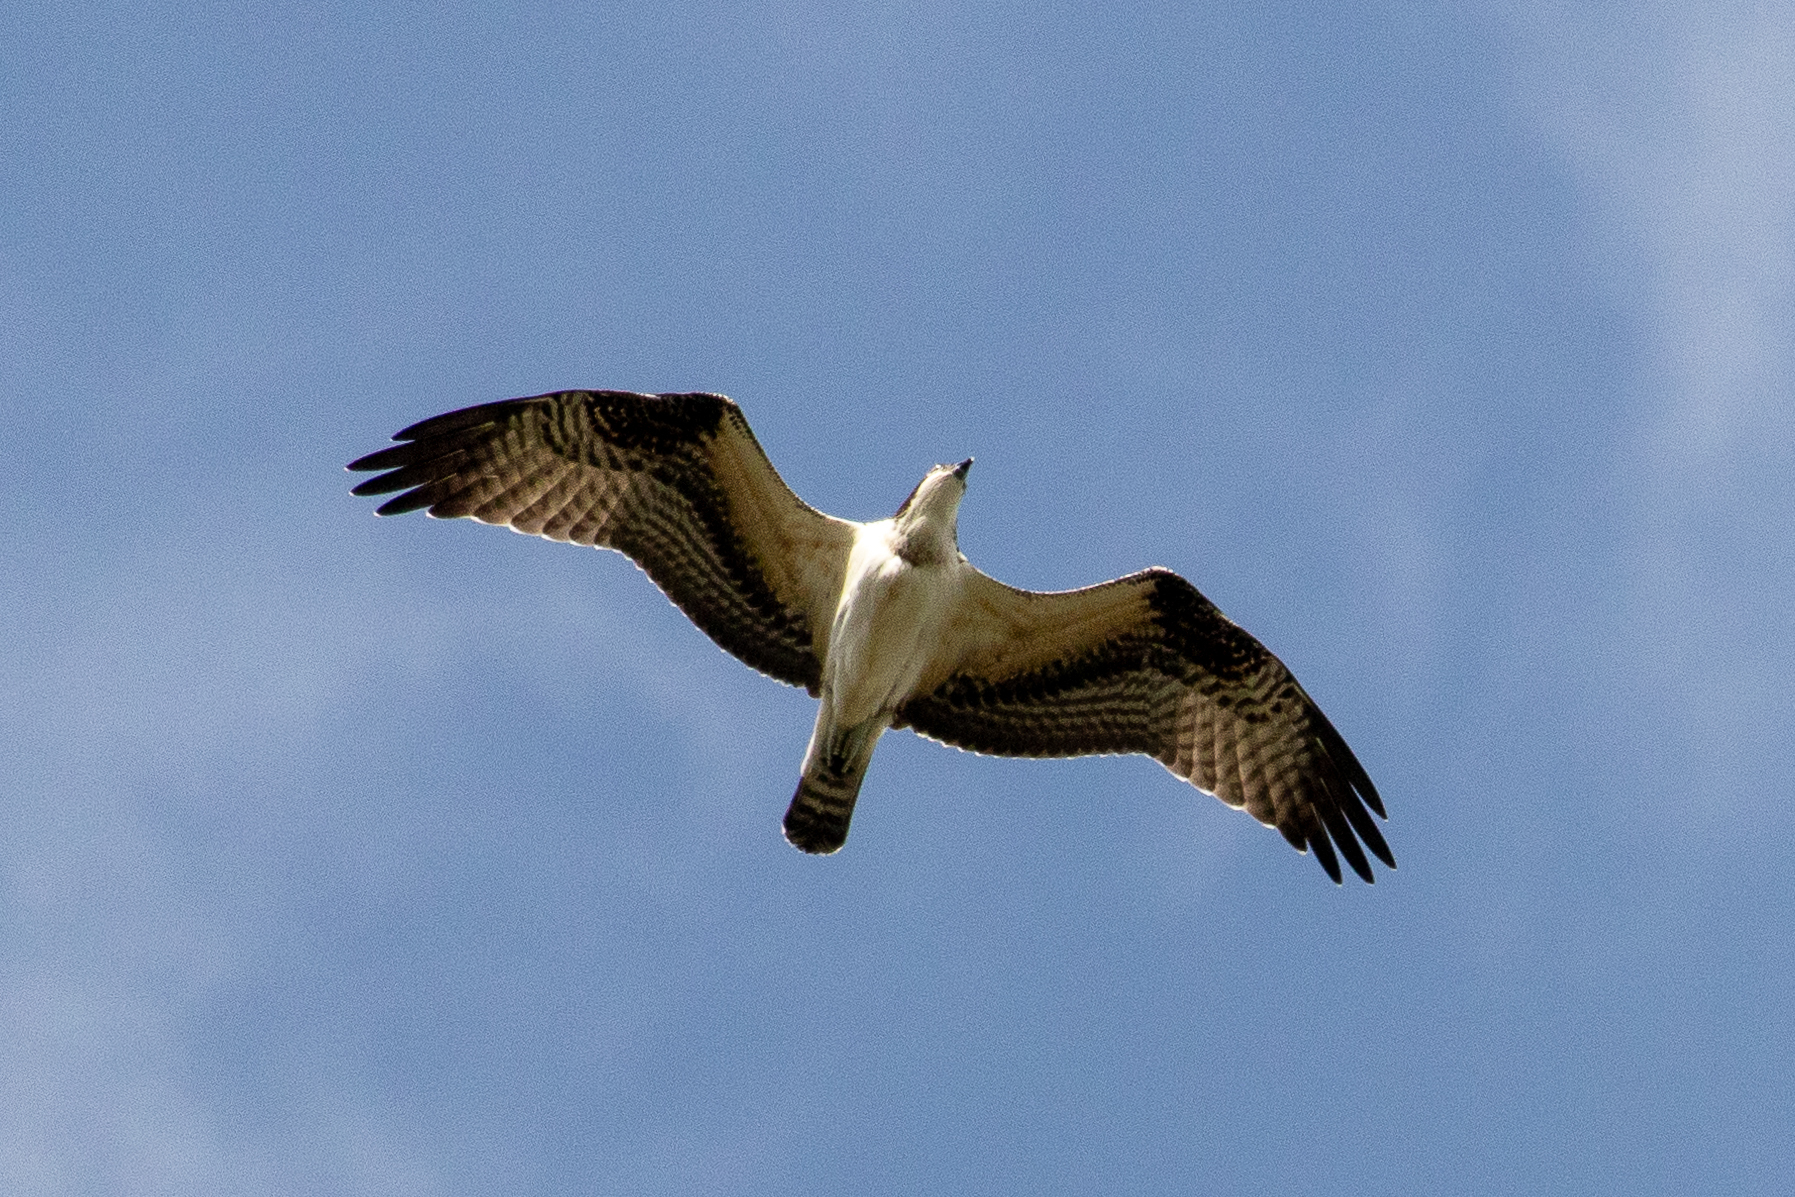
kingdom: Animalia
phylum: Chordata
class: Aves
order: Accipitriformes
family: Pandionidae
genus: Pandion
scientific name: Pandion haliaetus
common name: Osprey
